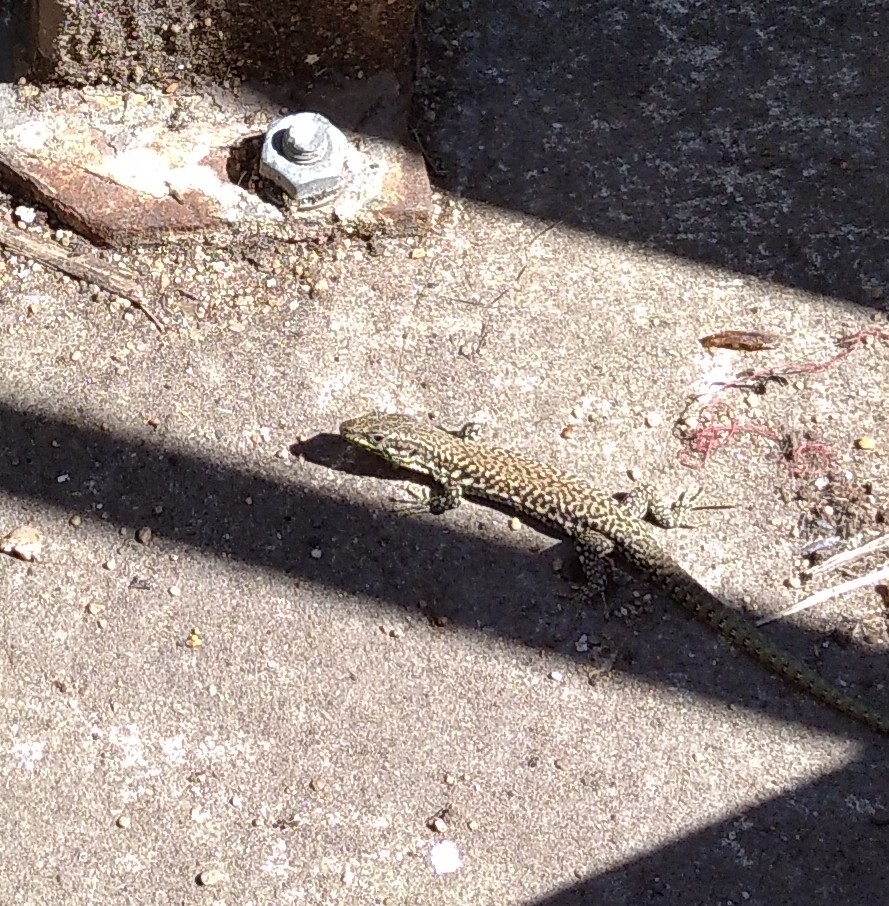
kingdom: Animalia
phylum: Chordata
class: Squamata
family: Lacertidae
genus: Podarcis
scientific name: Podarcis muralis
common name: Common wall lizard
